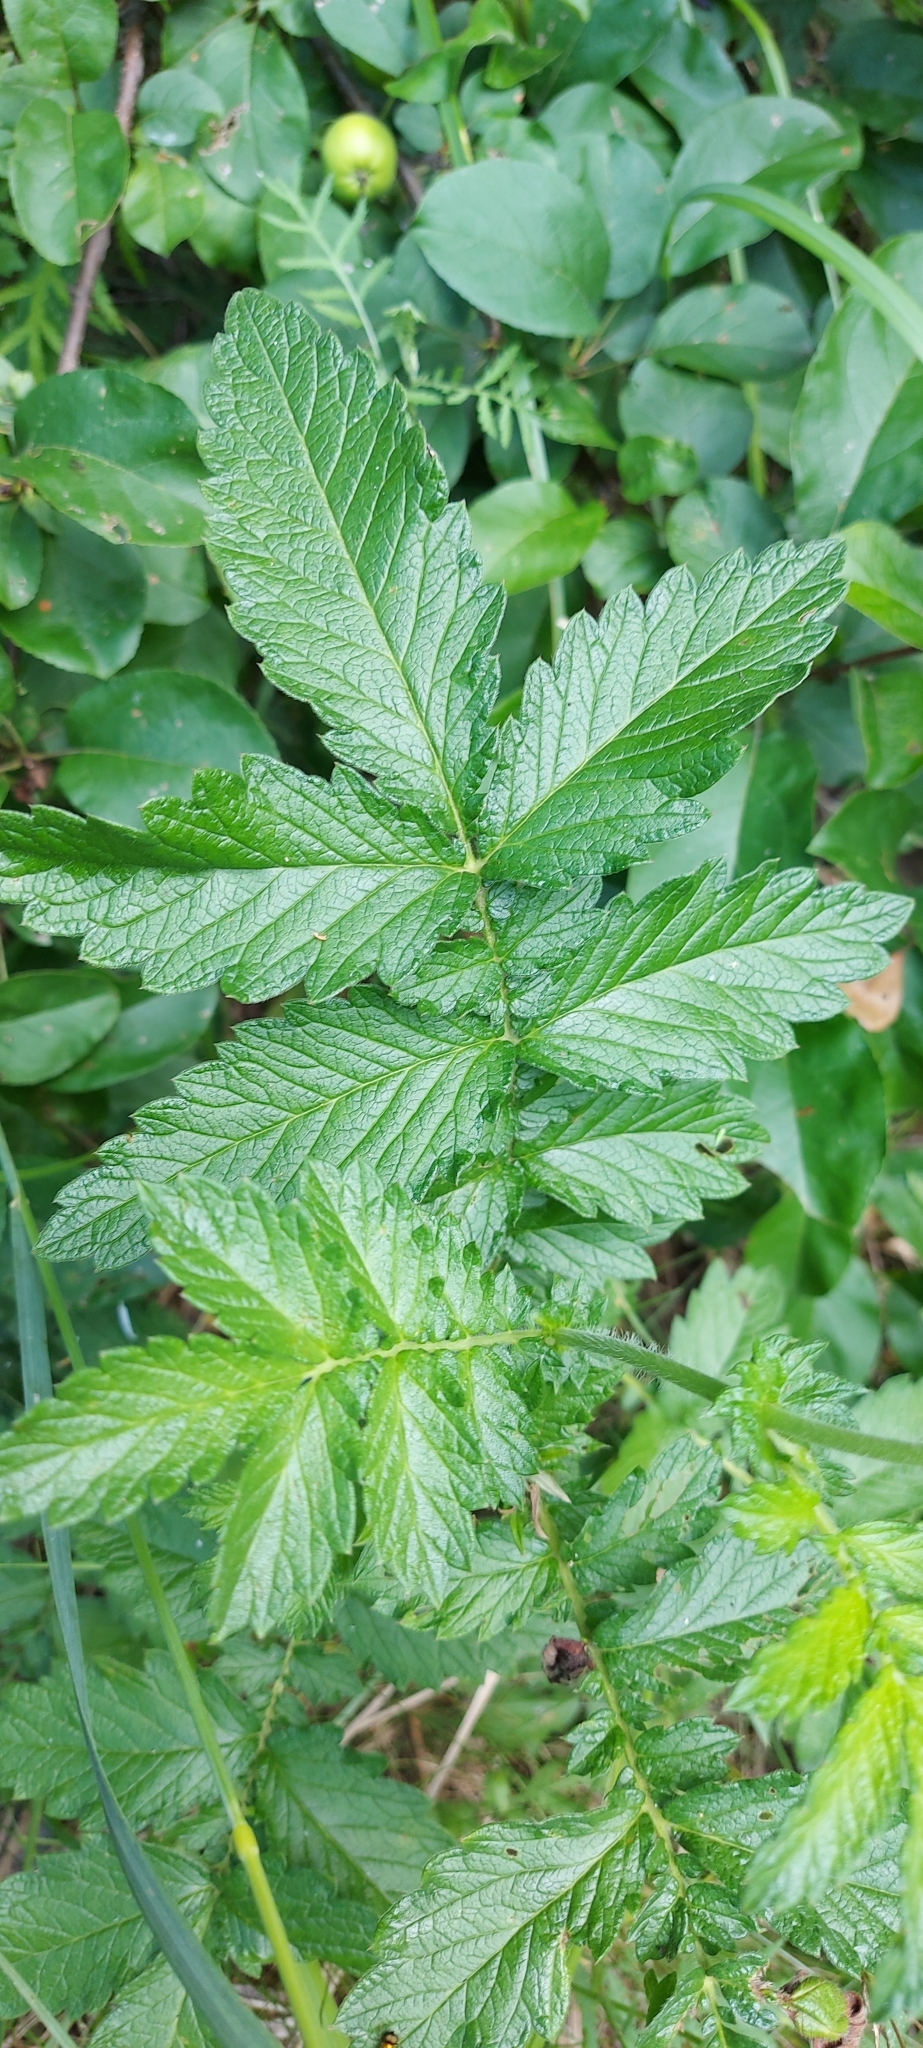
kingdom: Plantae
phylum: Tracheophyta
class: Magnoliopsida
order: Rosales
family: Rosaceae
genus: Agrimonia
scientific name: Agrimonia eupatoria
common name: Agrimony
